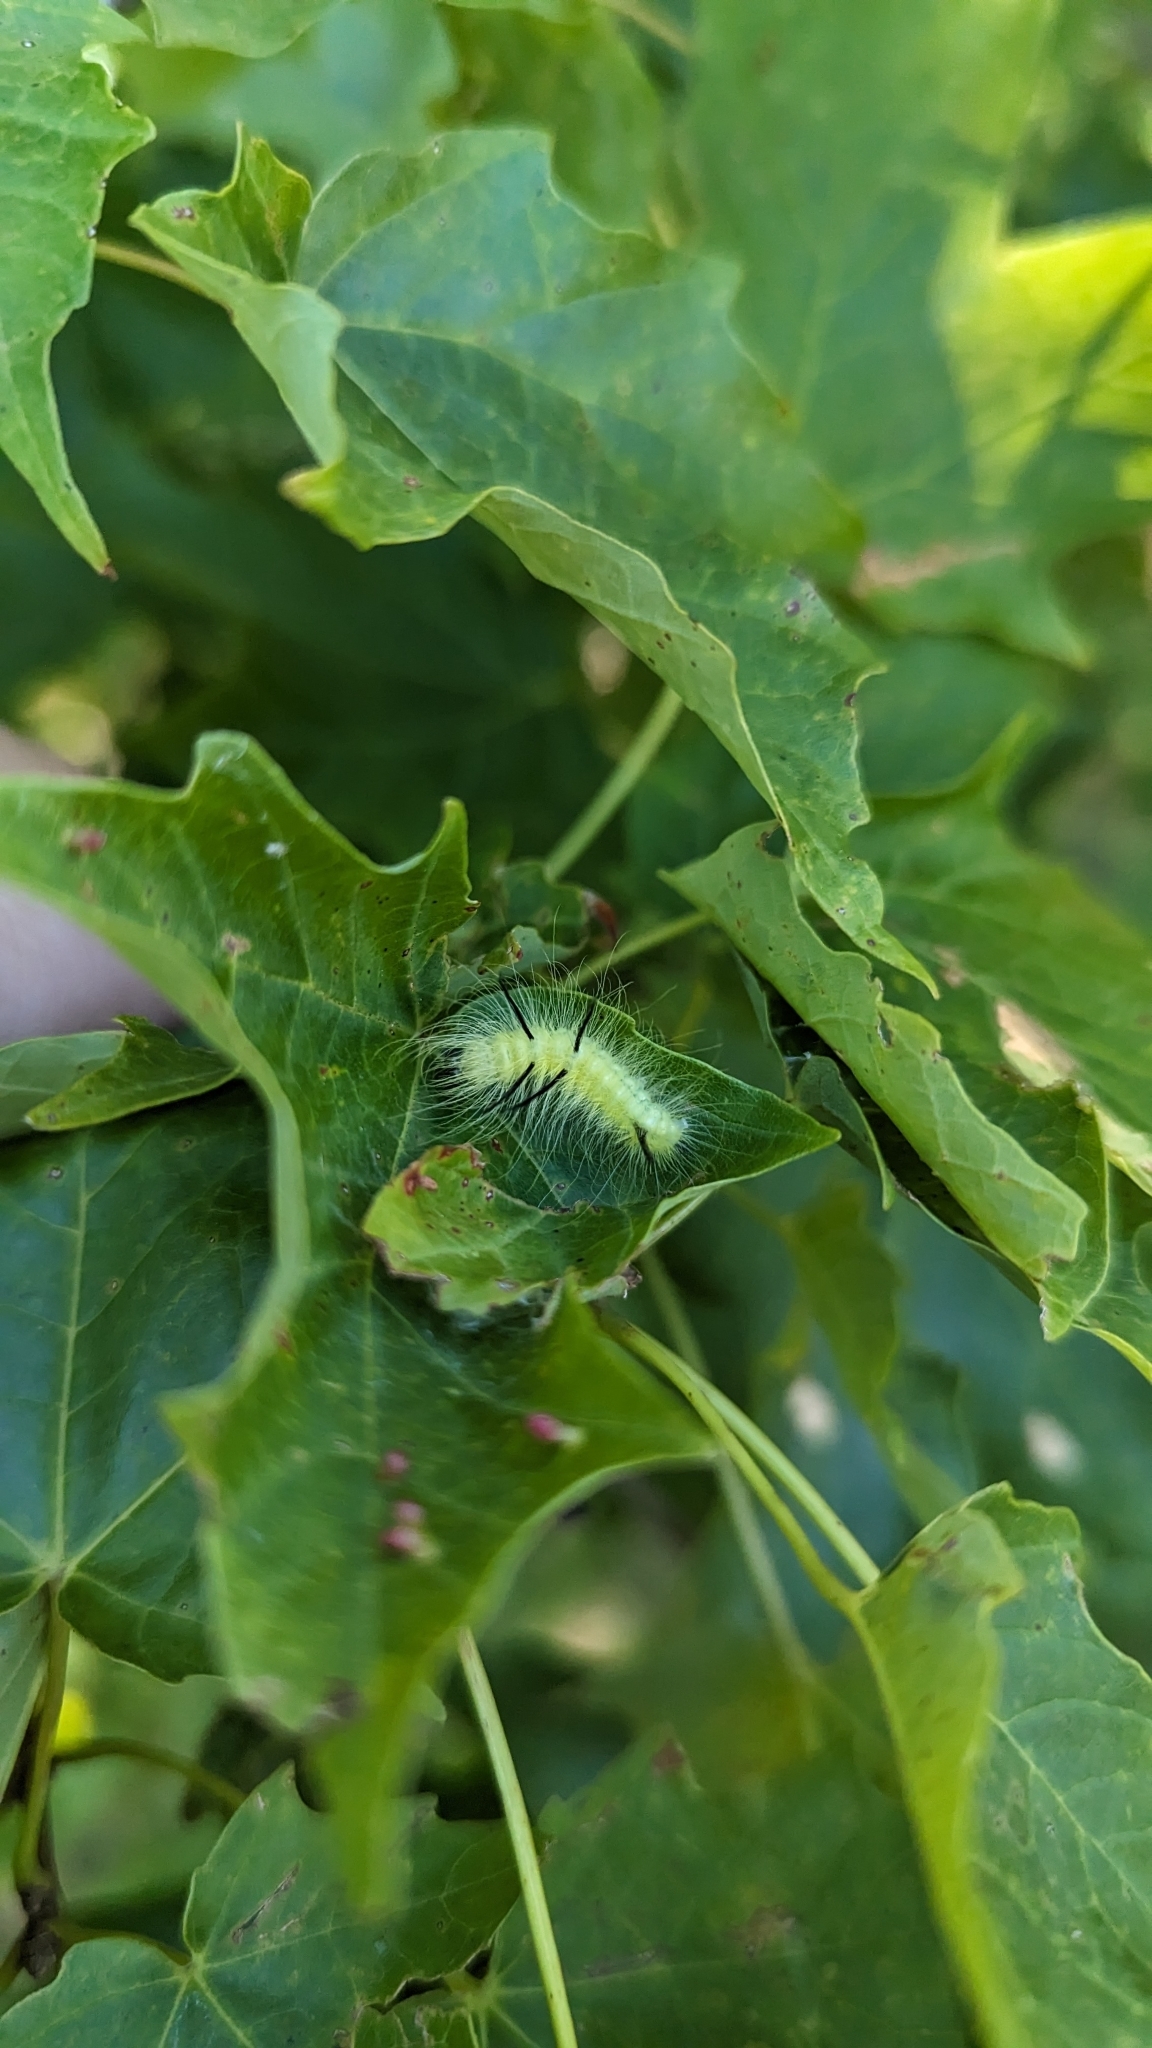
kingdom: Animalia
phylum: Arthropoda
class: Insecta
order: Lepidoptera
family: Noctuidae
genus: Acronicta
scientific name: Acronicta americana
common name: American dagger
